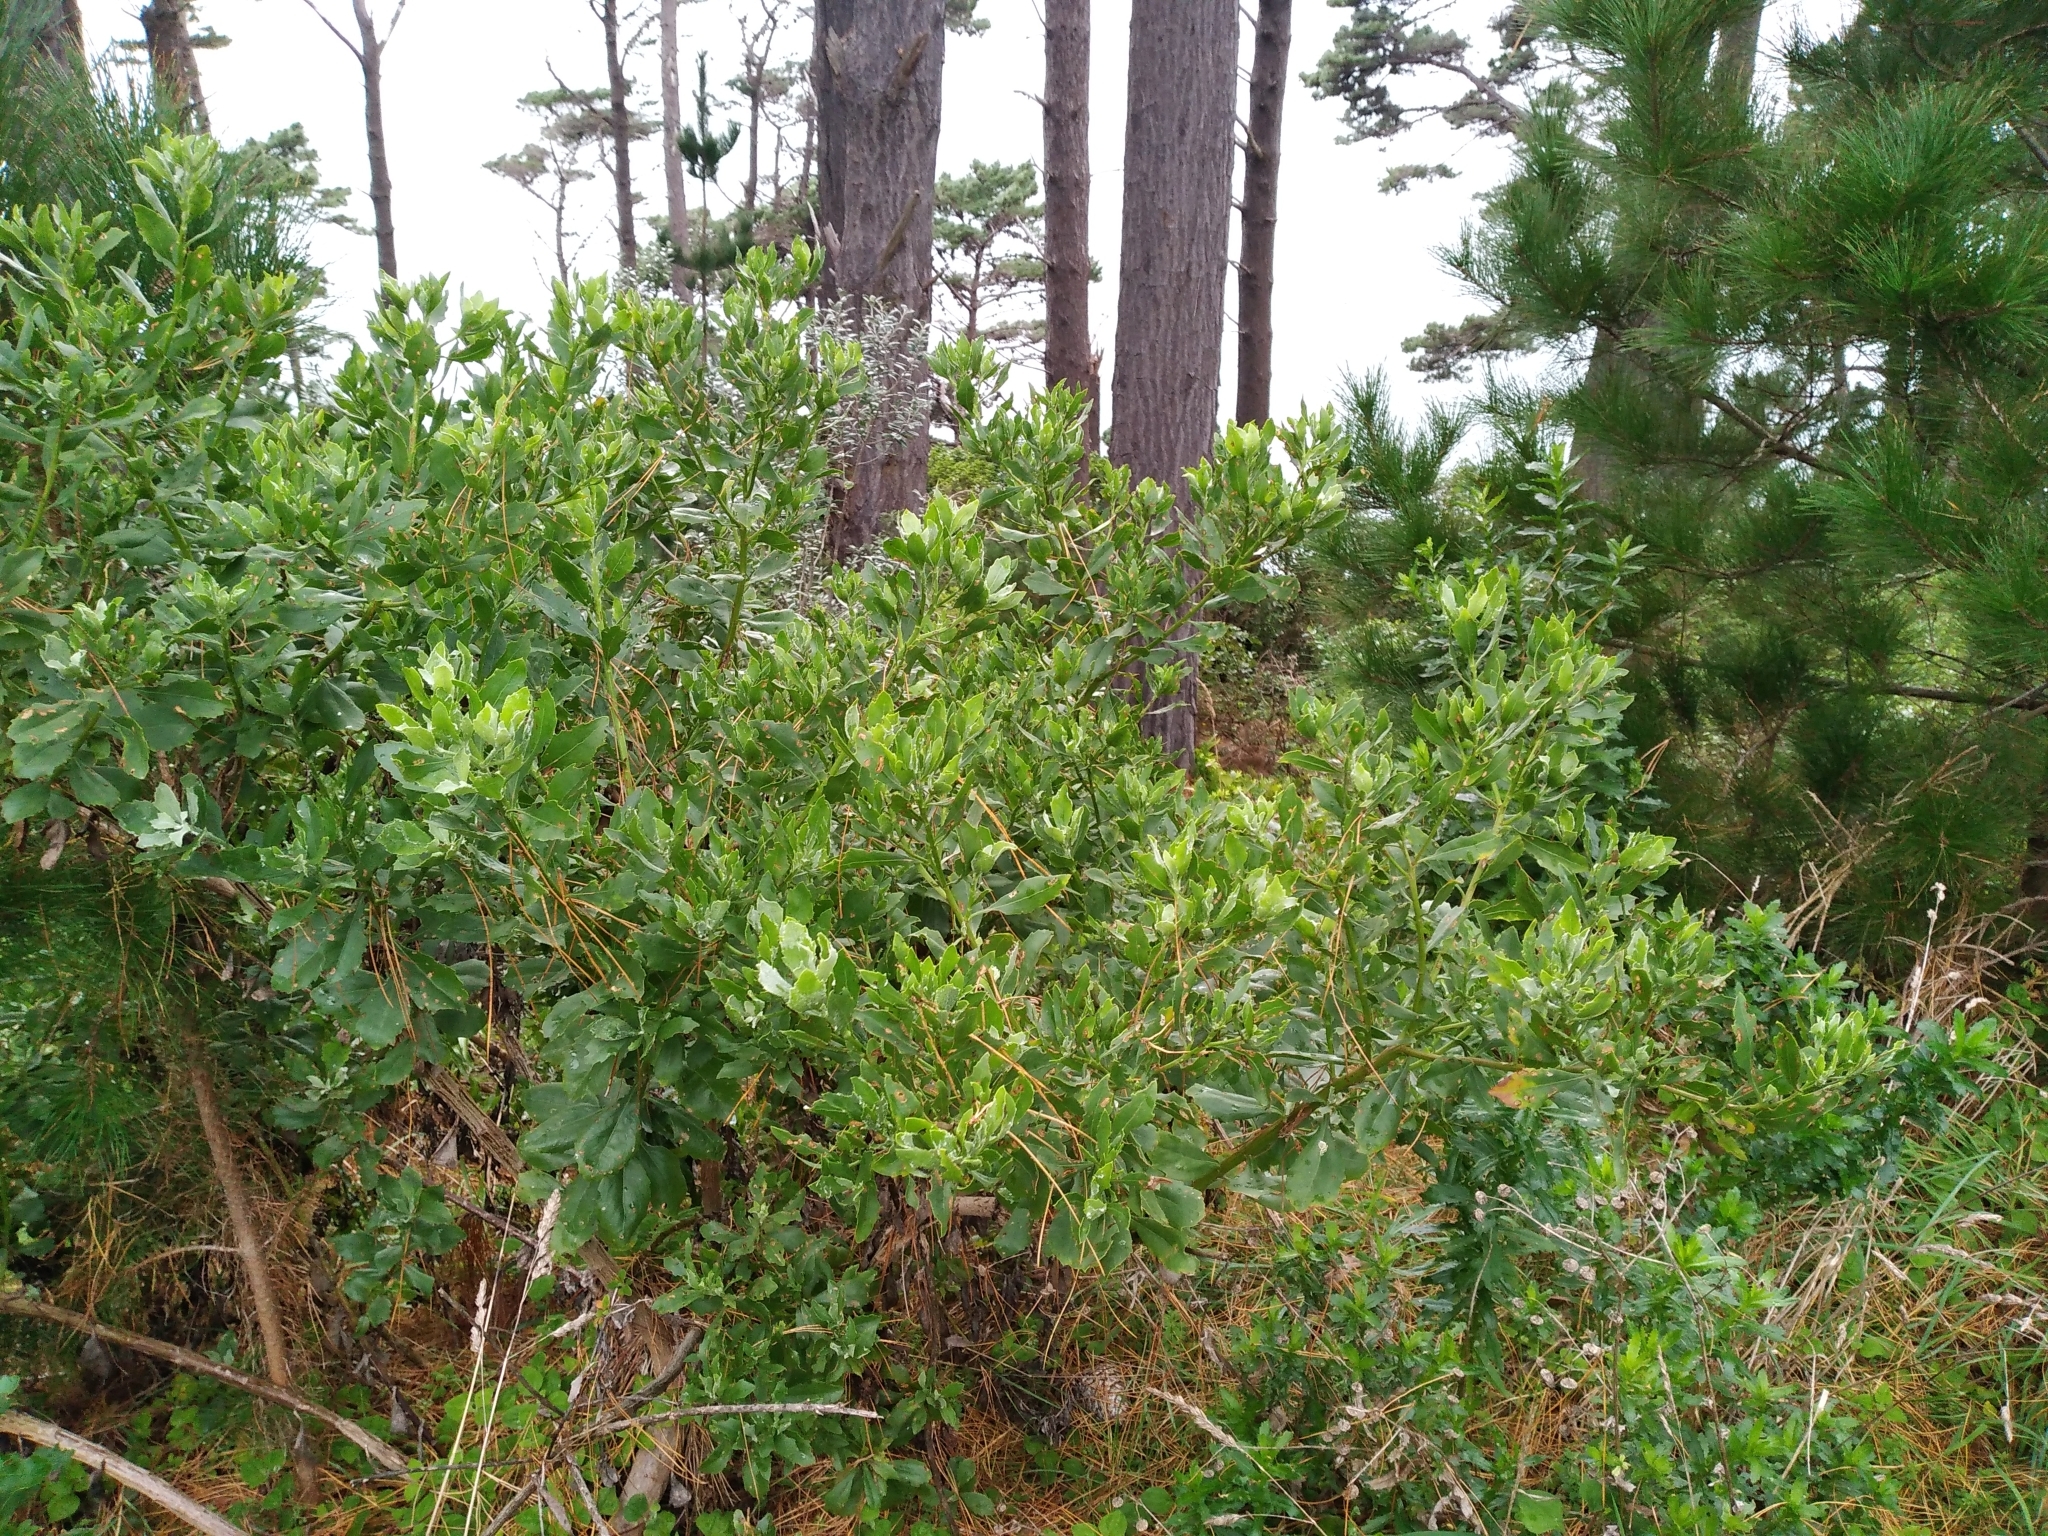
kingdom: Plantae
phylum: Tracheophyta
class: Magnoliopsida
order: Asterales
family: Asteraceae
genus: Osteospermum
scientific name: Osteospermum moniliferum
